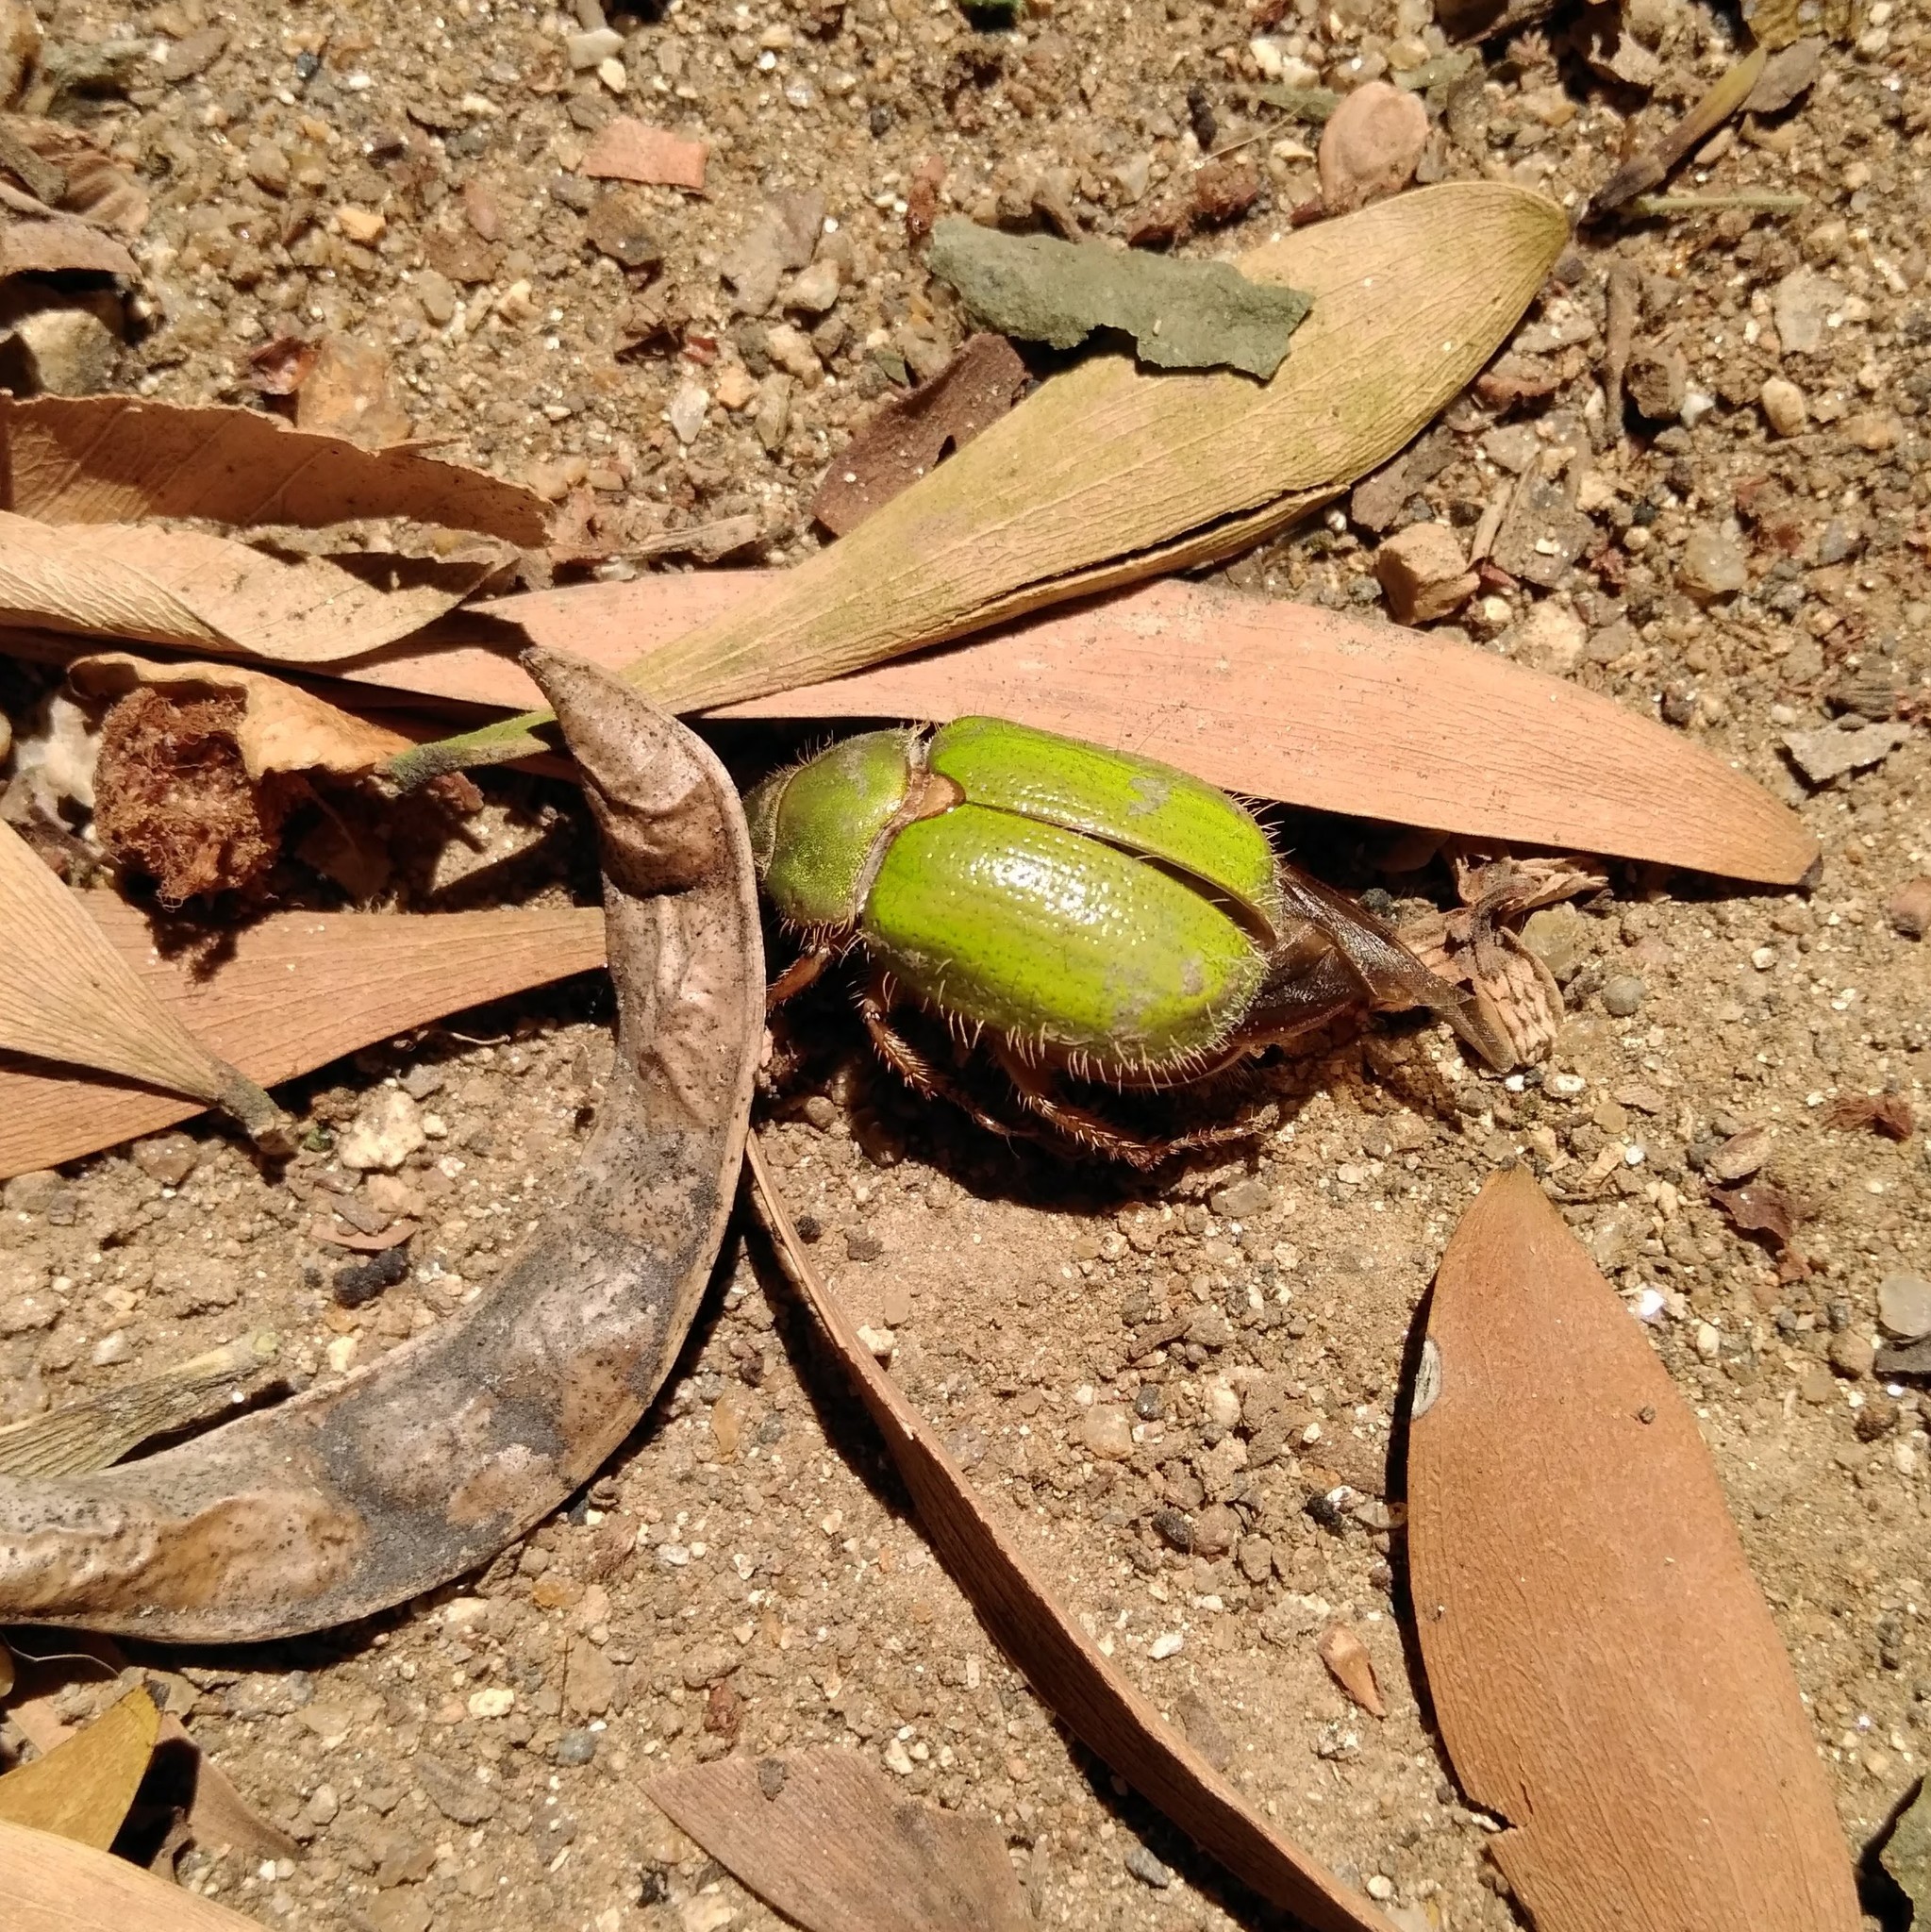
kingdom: Animalia
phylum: Arthropoda
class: Insecta
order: Coleoptera
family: Scarabaeidae
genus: Brachysternus
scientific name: Brachysternus prasinus
